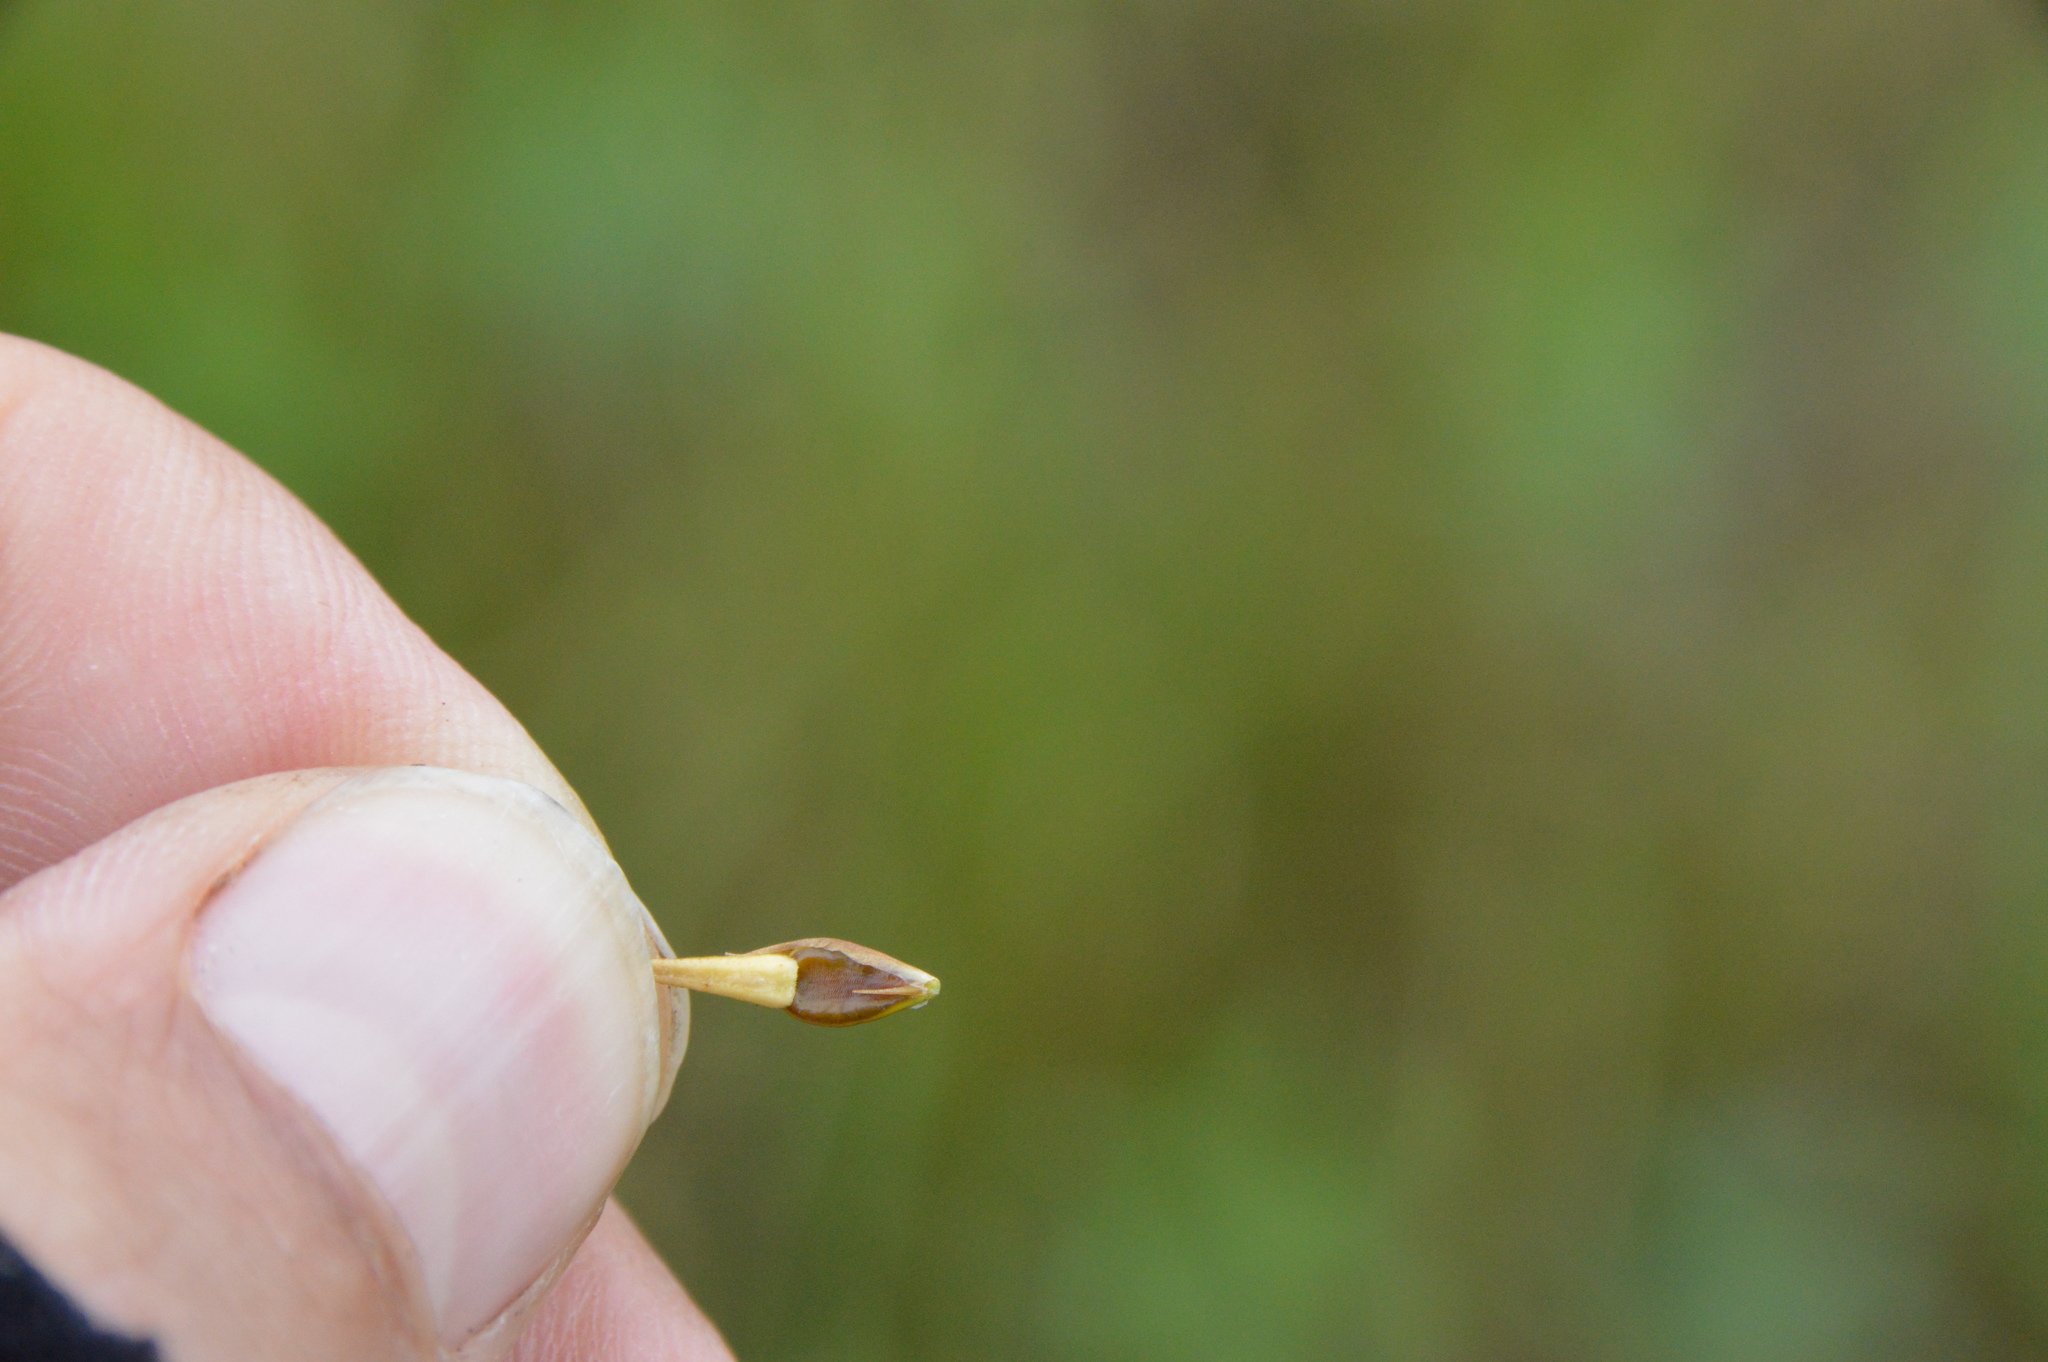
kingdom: Plantae
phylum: Tracheophyta
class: Liliopsida
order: Poales
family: Cyperaceae
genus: Rhynchospora
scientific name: Rhynchospora corniculata
